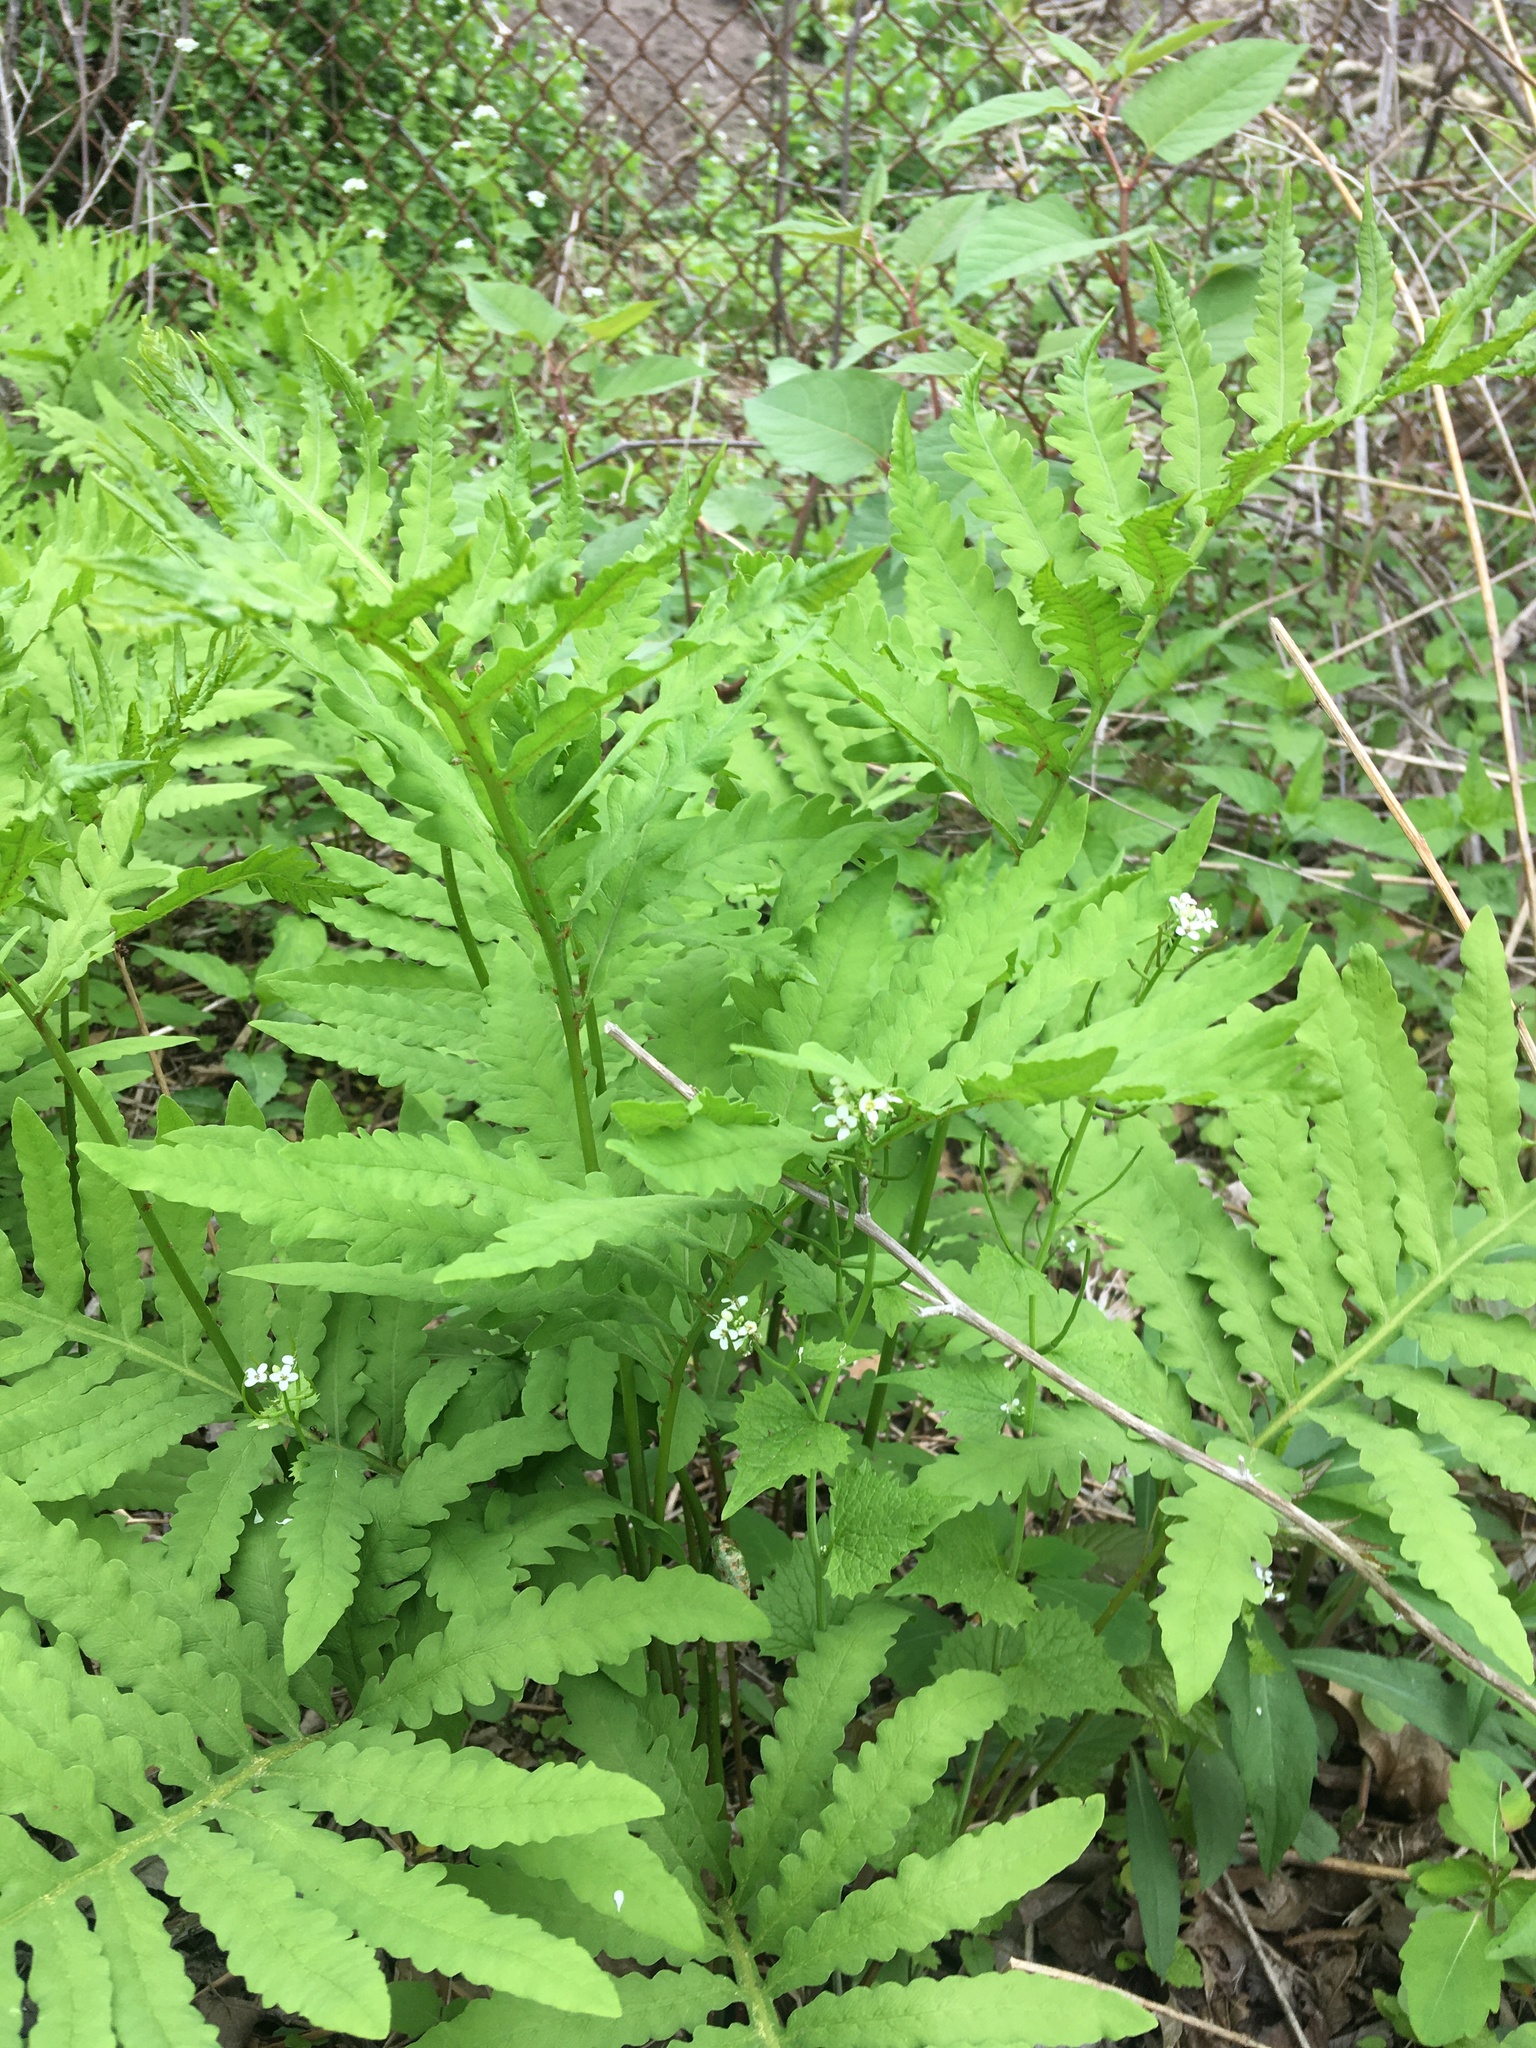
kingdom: Plantae
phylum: Tracheophyta
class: Polypodiopsida
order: Polypodiales
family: Onocleaceae
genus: Onoclea
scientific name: Onoclea sensibilis
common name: Sensitive fern
